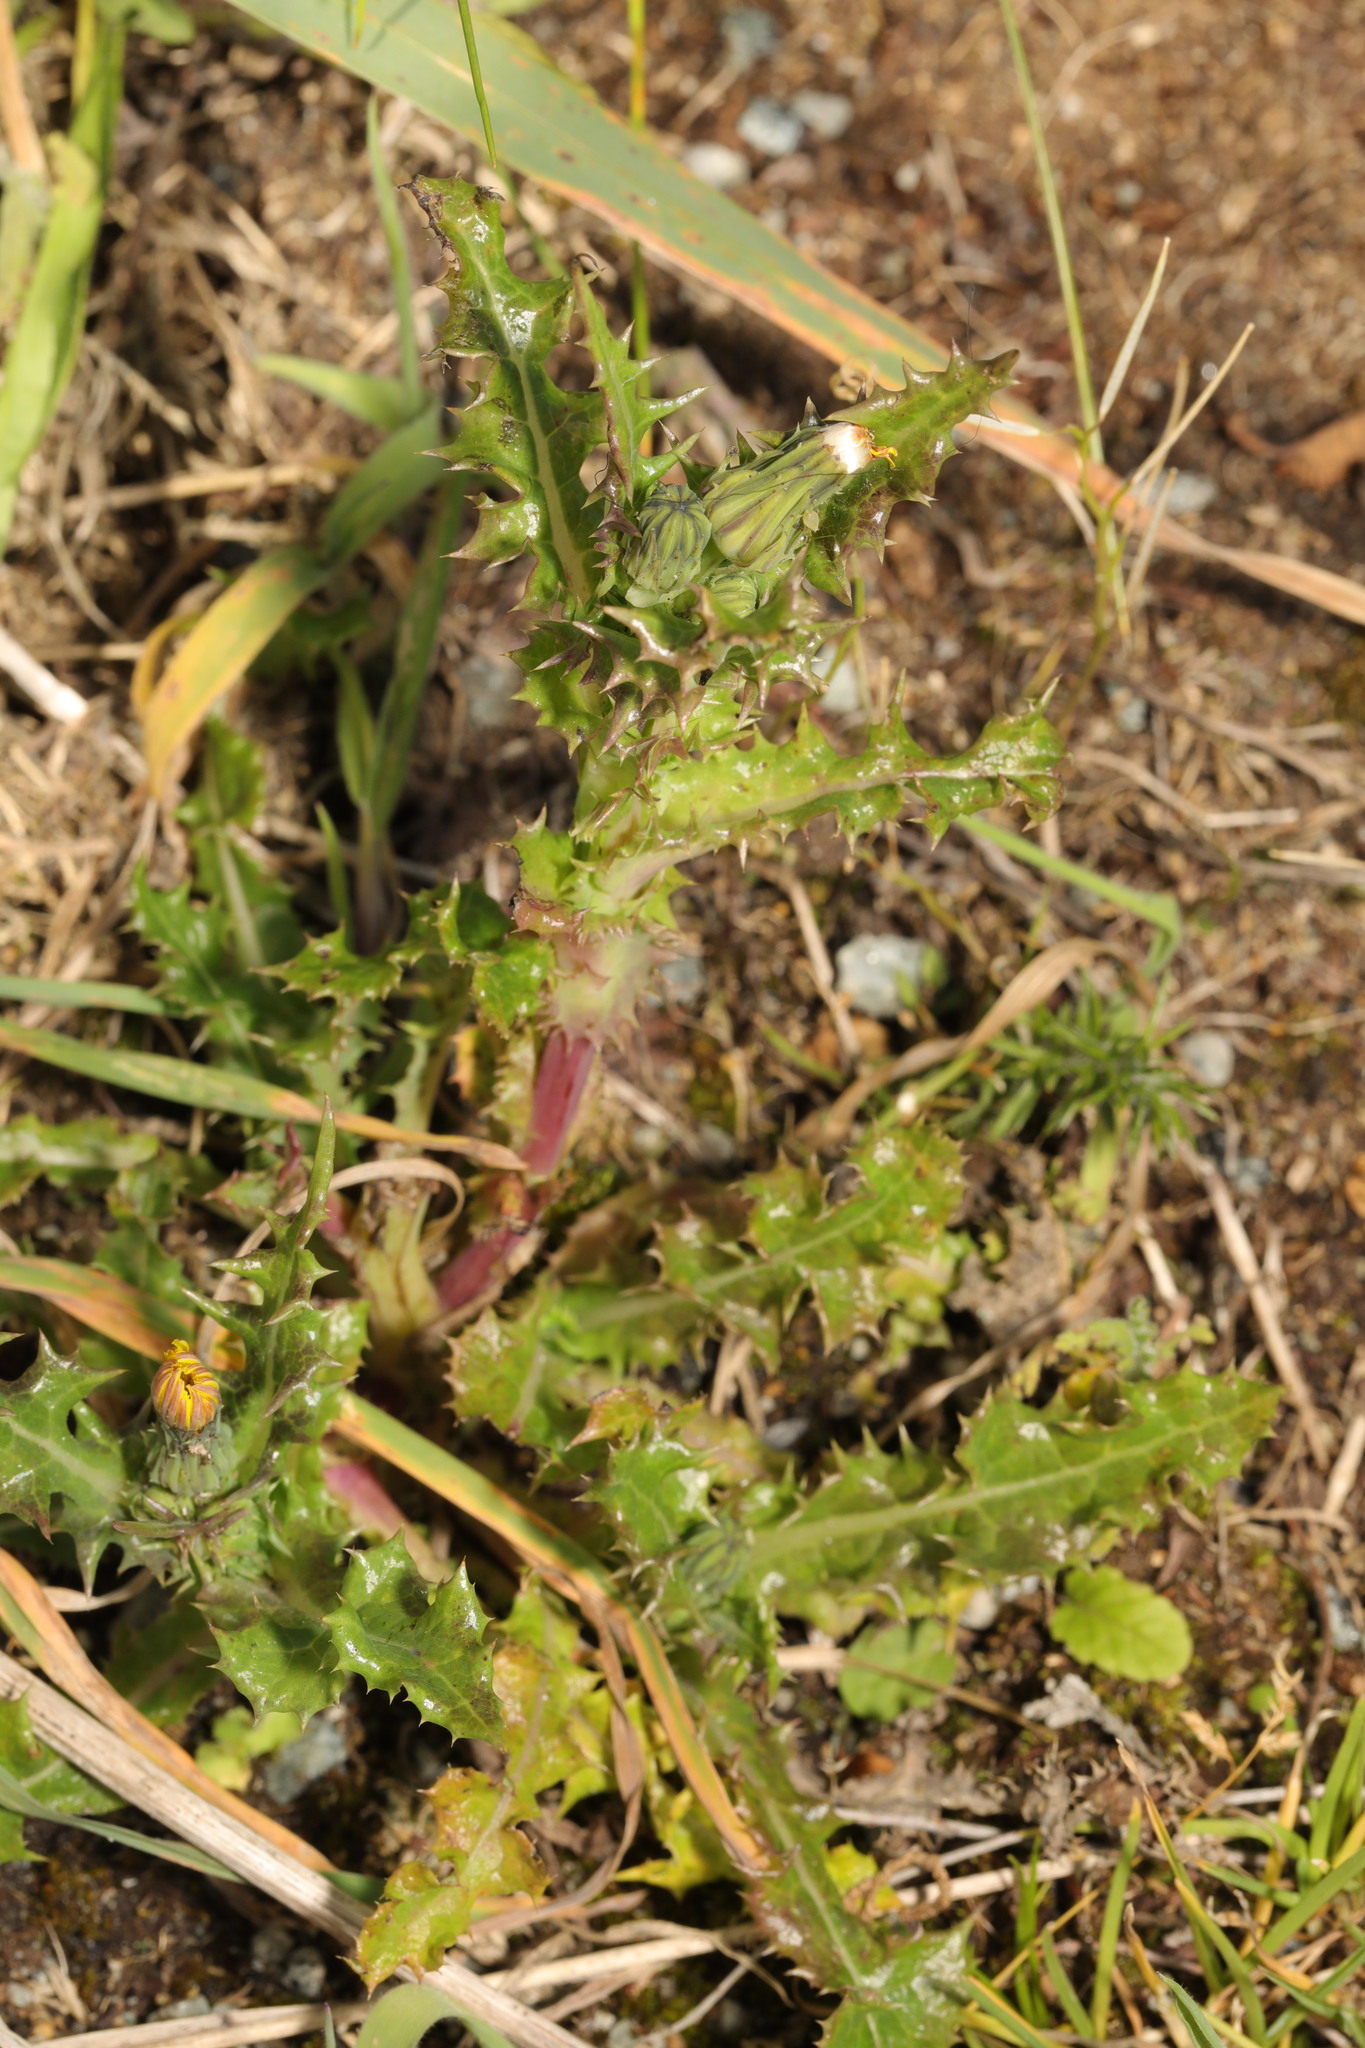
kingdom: Plantae
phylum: Tracheophyta
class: Magnoliopsida
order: Asterales
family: Asteraceae
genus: Sonchus
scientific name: Sonchus asper
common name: Prickly sow-thistle
